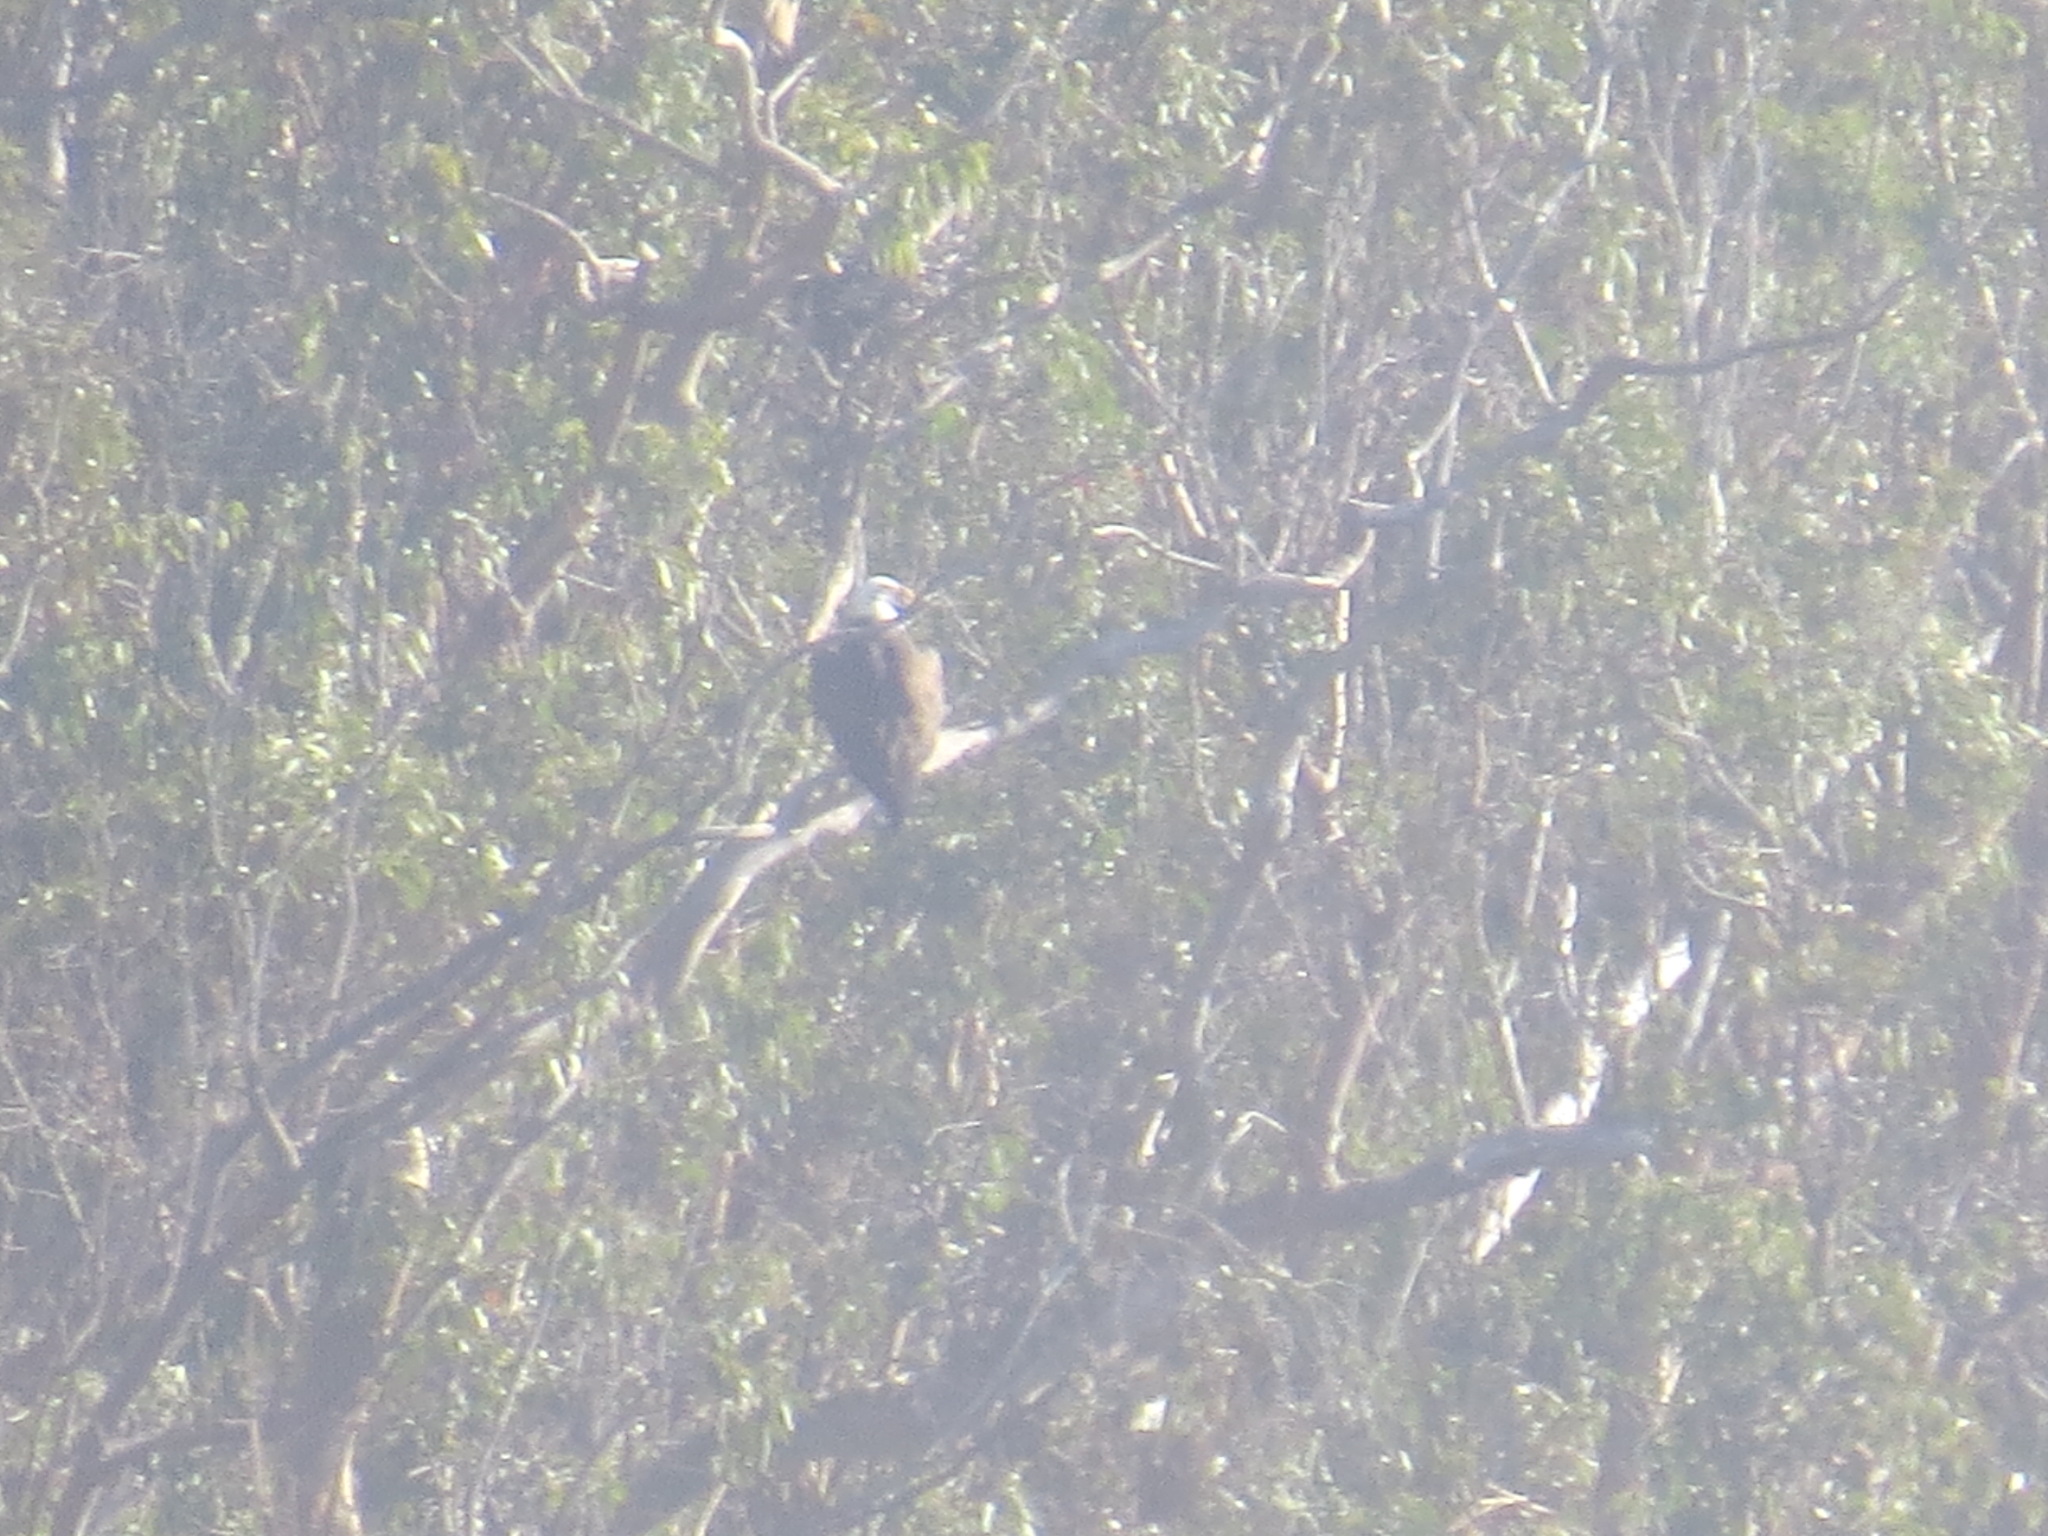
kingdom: Animalia
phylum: Chordata
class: Aves
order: Accipitriformes
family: Accipitridae
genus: Haliaeetus
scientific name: Haliaeetus leucocephalus
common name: Bald eagle
